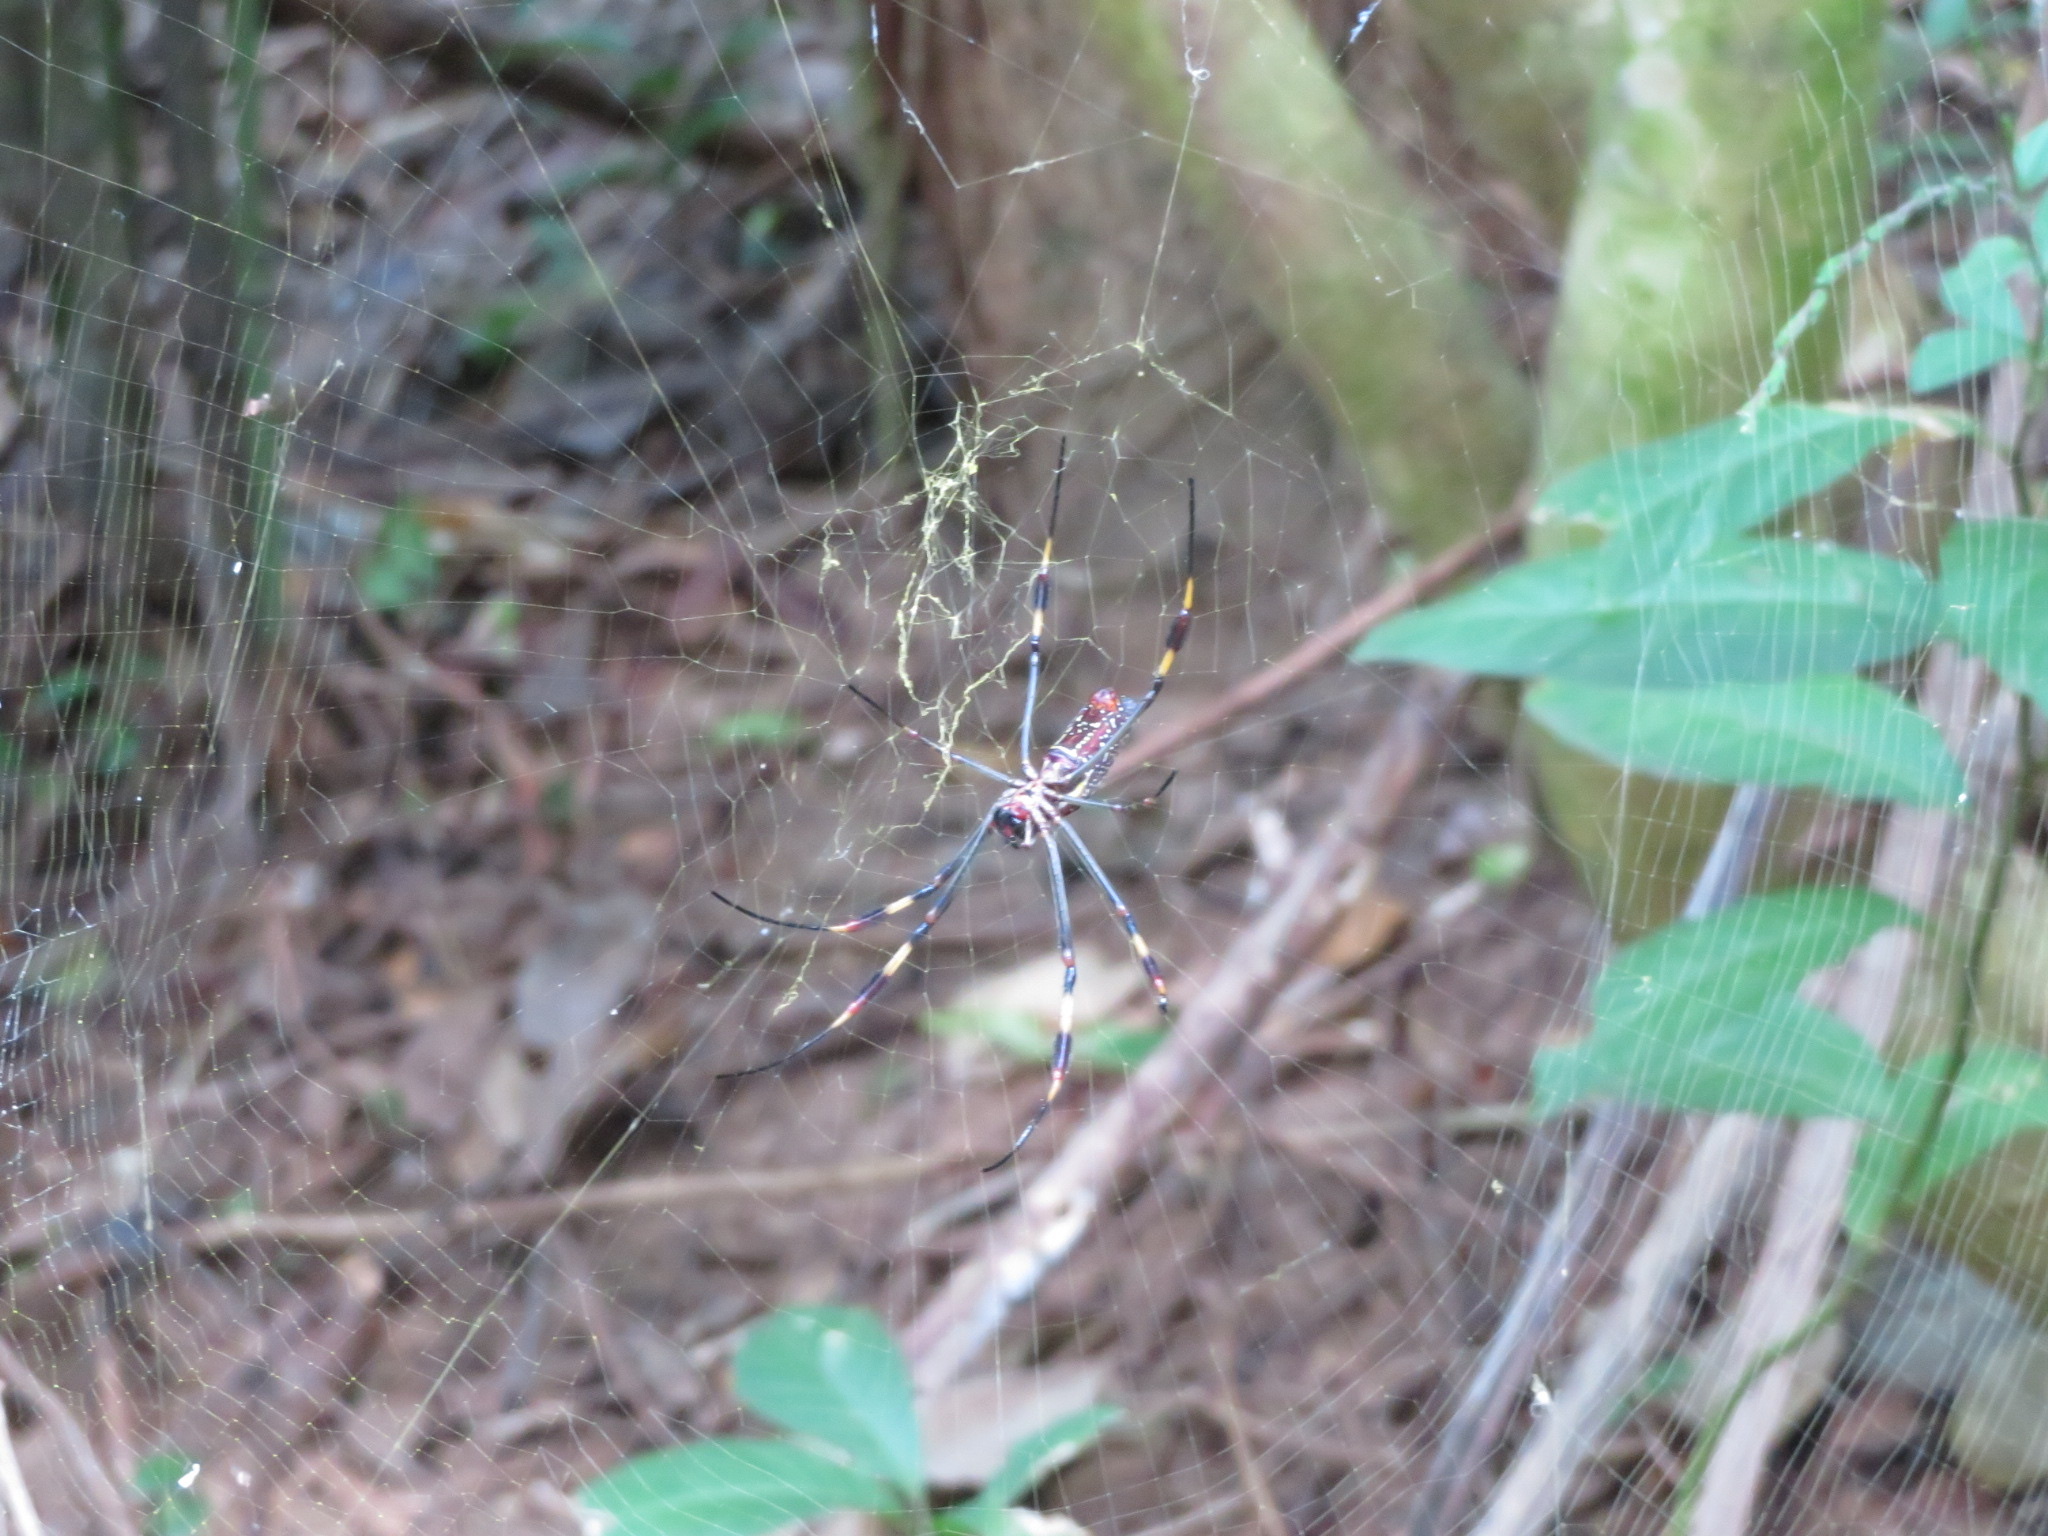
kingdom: Animalia
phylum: Arthropoda
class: Arachnida
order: Araneae
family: Araneidae
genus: Trichonephila
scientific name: Trichonephila clavipes
